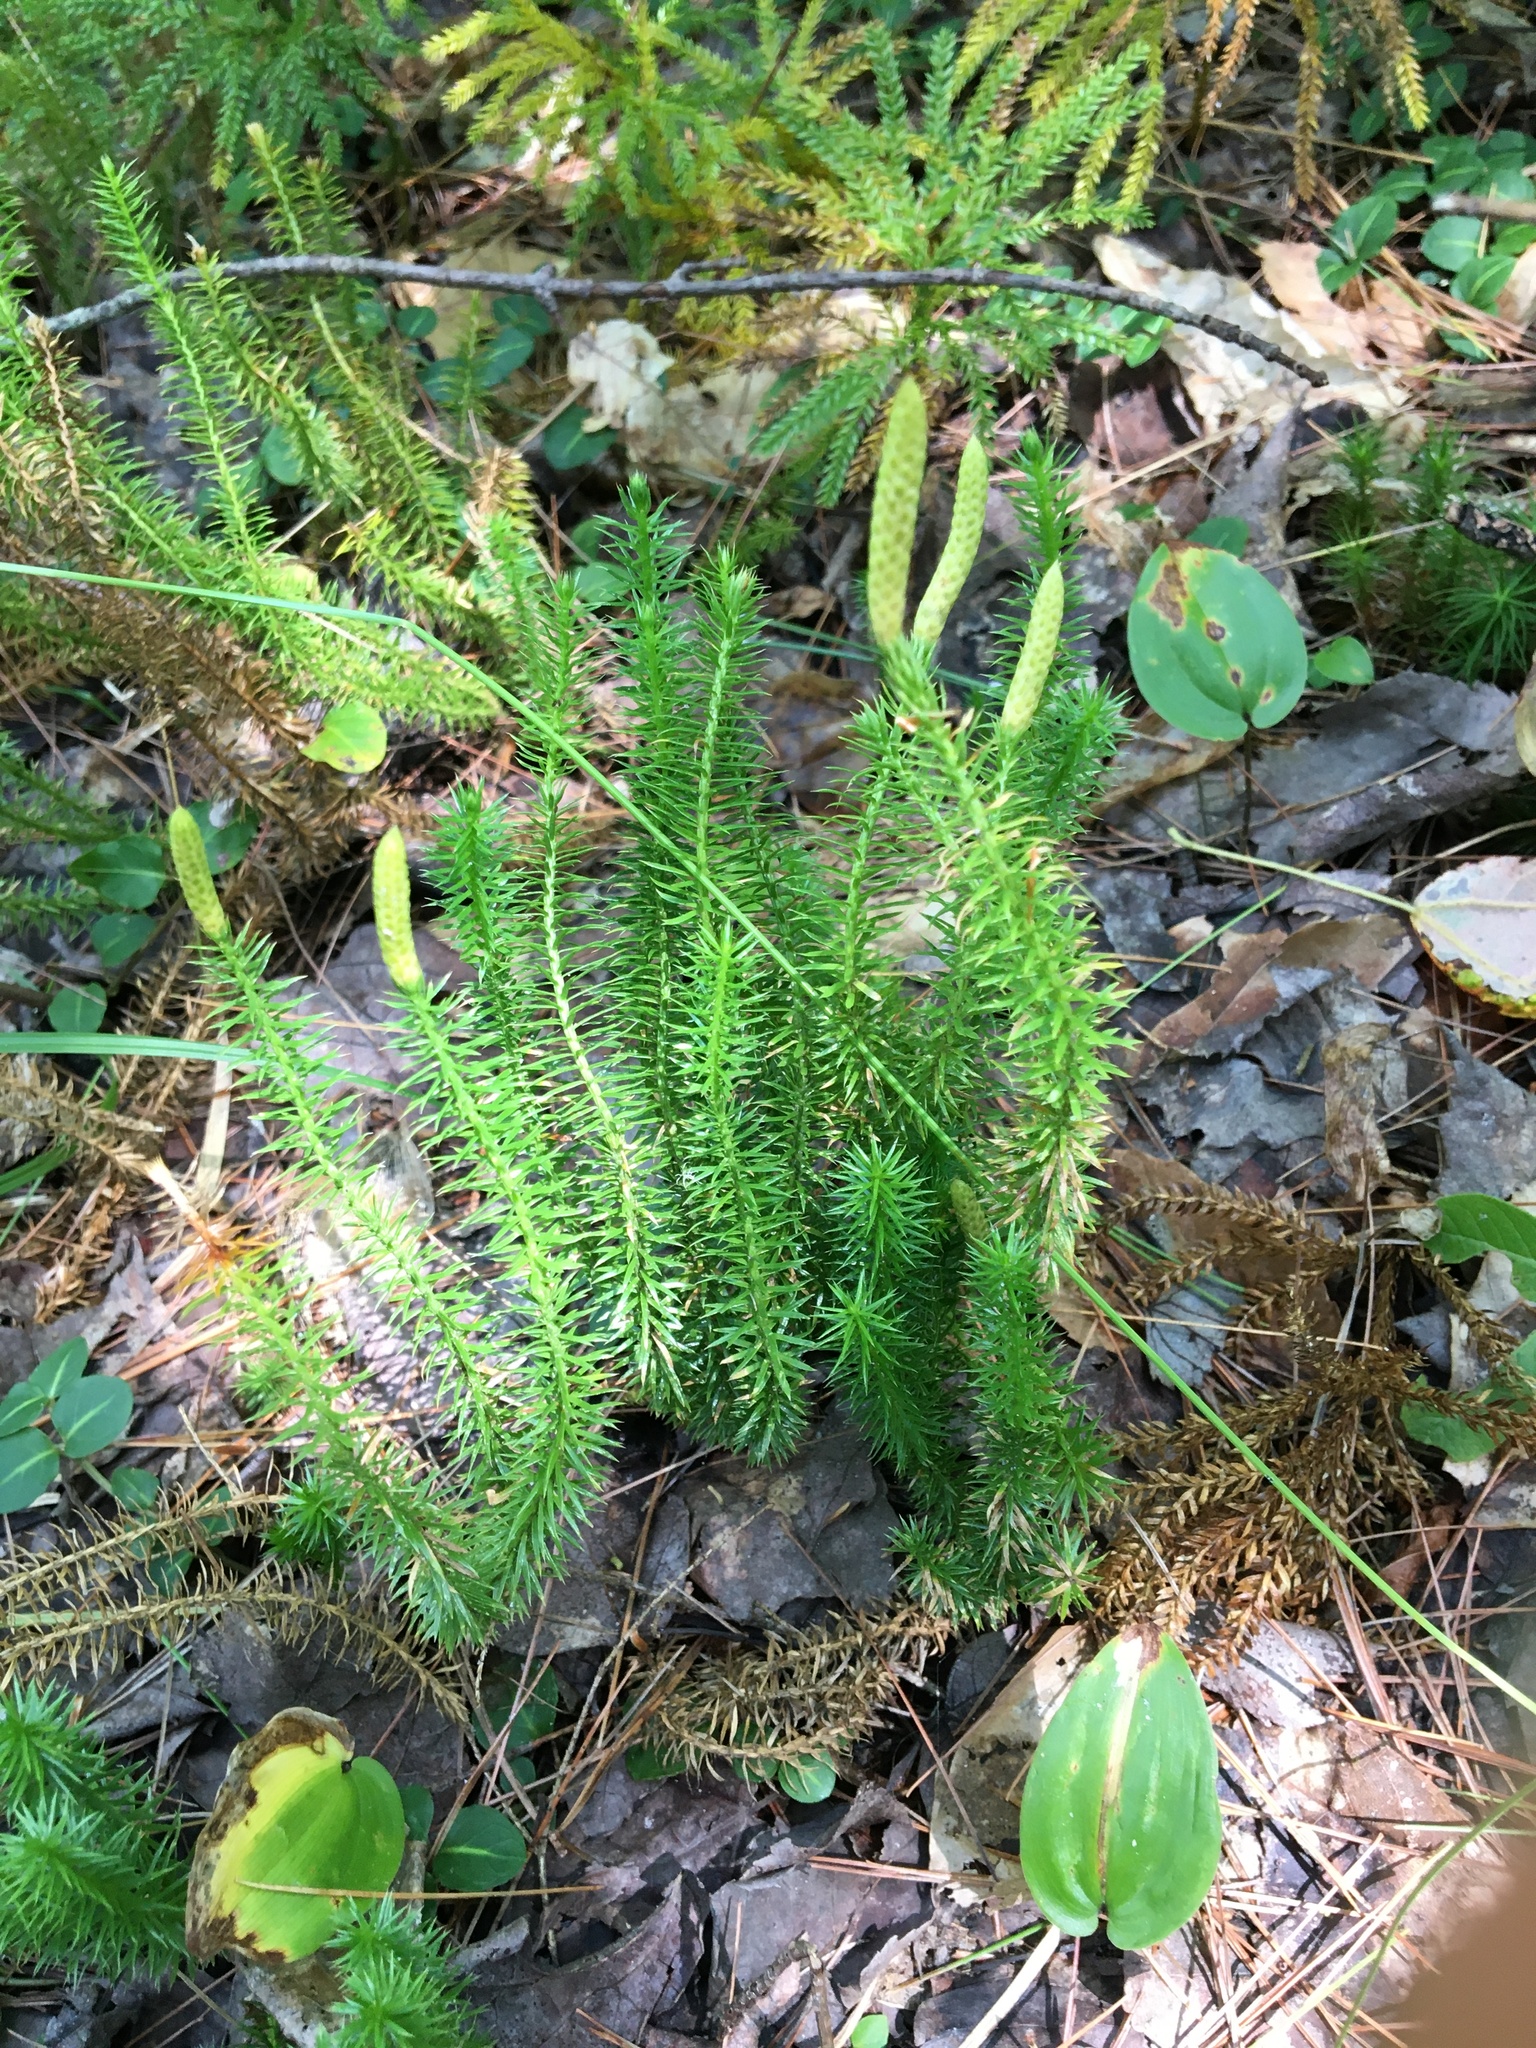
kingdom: Plantae
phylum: Tracheophyta
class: Lycopodiopsida
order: Lycopodiales
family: Lycopodiaceae
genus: Spinulum
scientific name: Spinulum annotinum
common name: Interrupted club-moss
